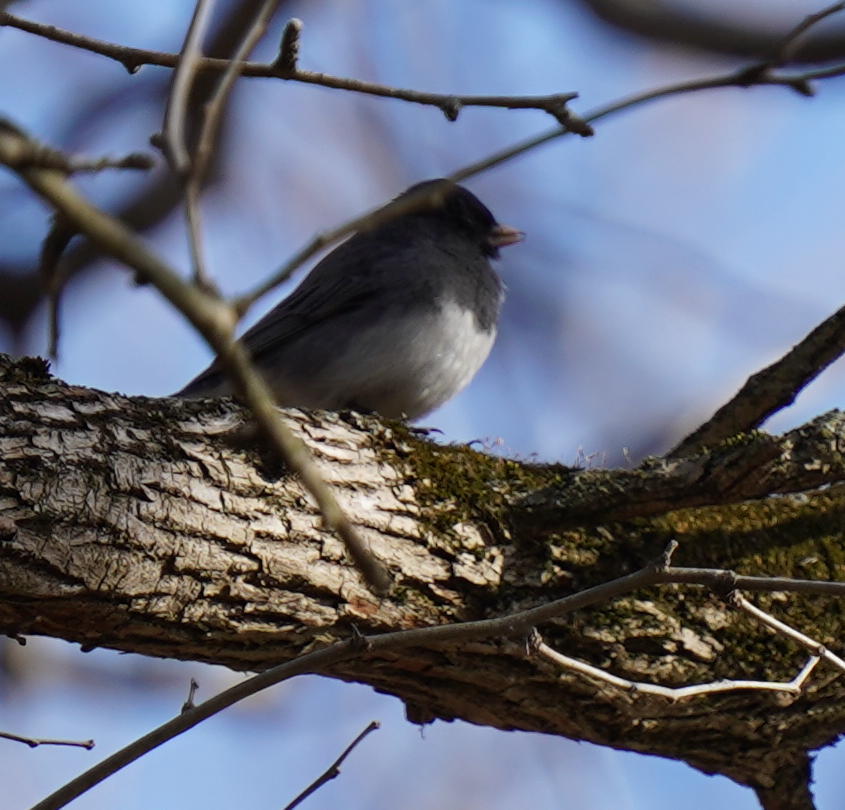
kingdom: Animalia
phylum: Chordata
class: Aves
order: Passeriformes
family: Passerellidae
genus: Junco
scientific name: Junco hyemalis
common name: Dark-eyed junco
